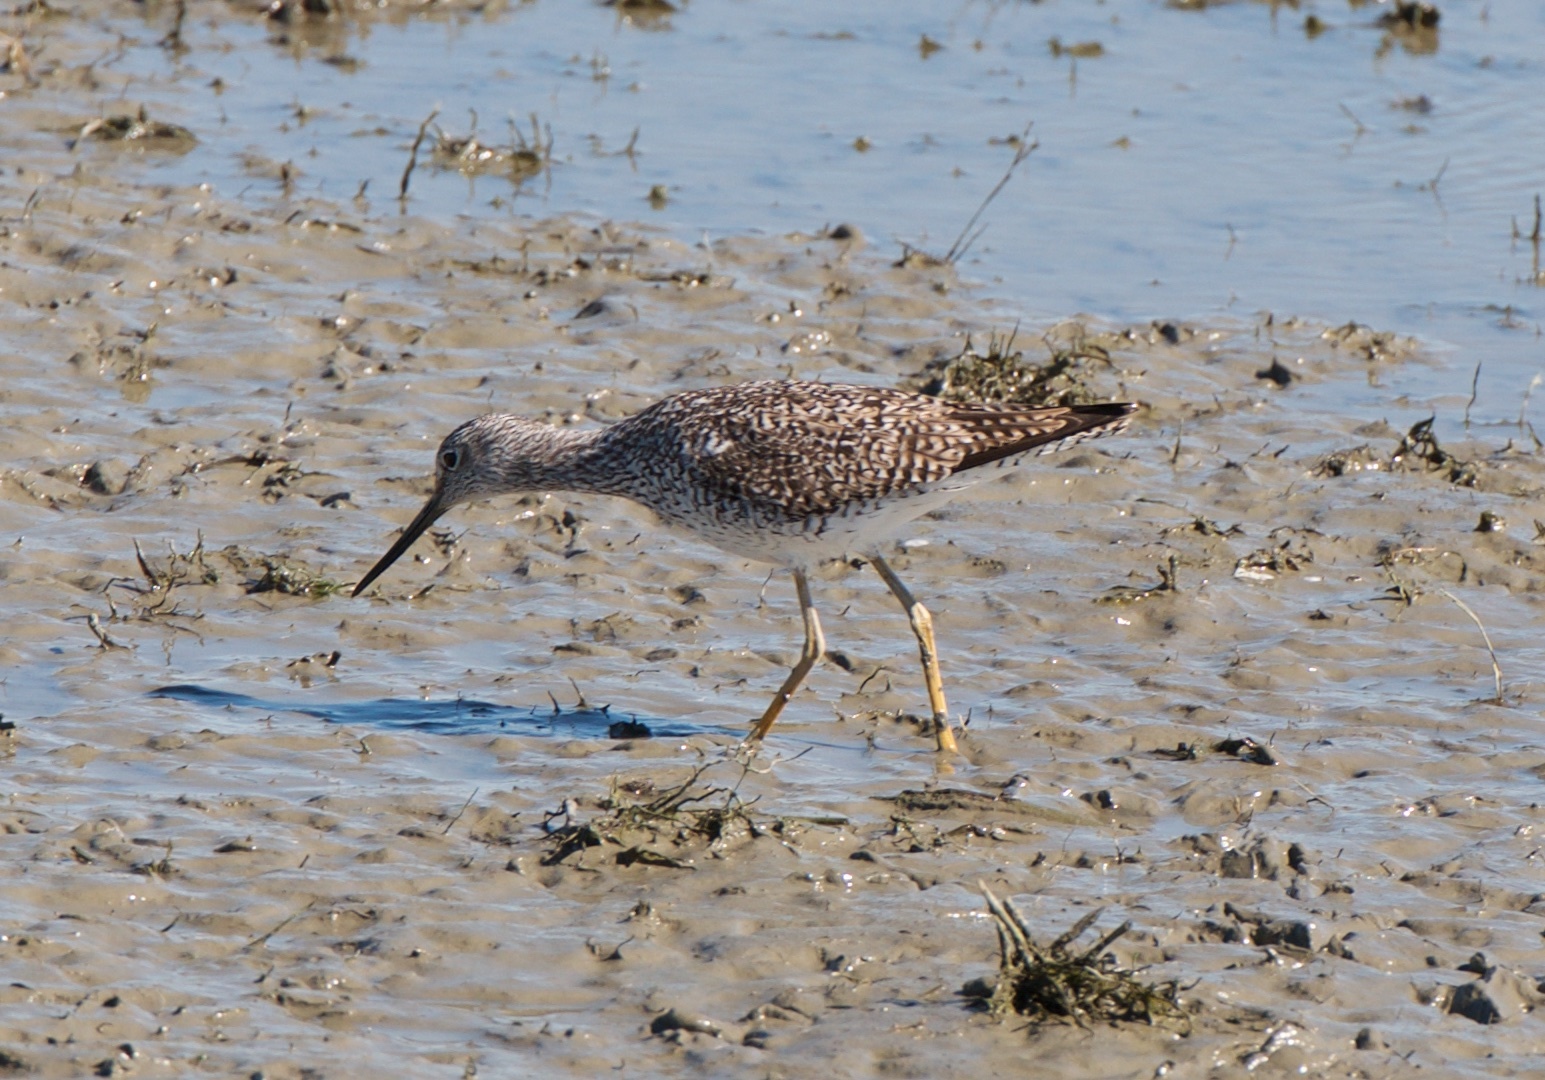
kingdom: Animalia
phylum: Chordata
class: Aves
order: Charadriiformes
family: Scolopacidae
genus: Tringa
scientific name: Tringa melanoleuca
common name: Greater yellowlegs
